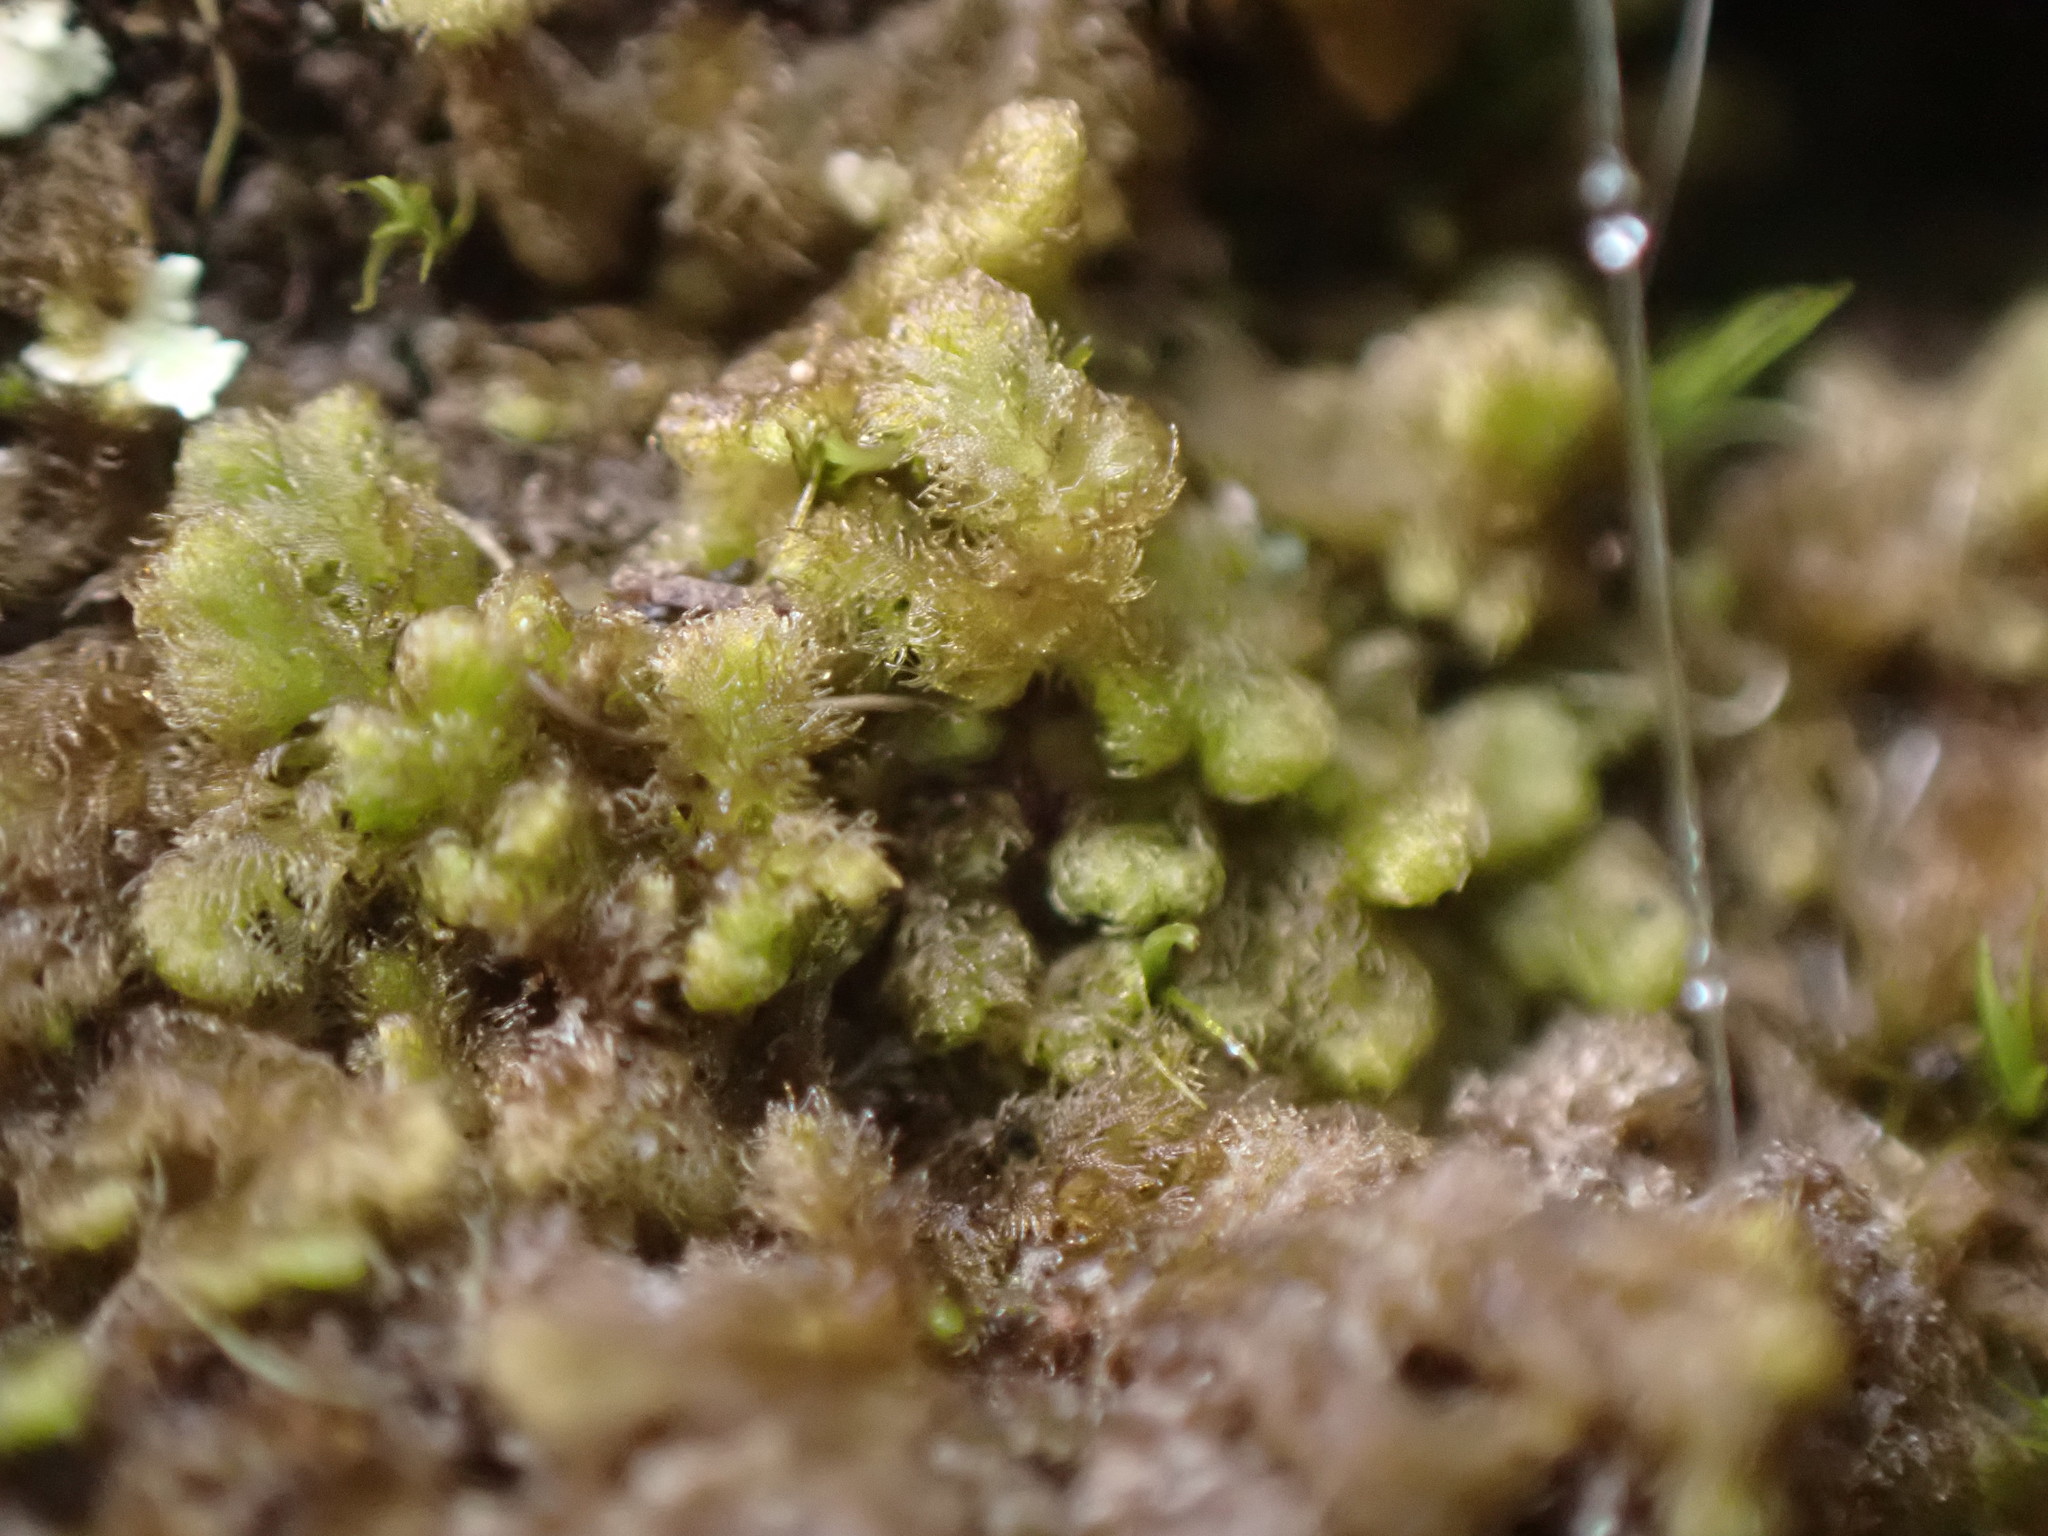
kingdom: Plantae
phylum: Marchantiophyta
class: Jungermanniopsida
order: Ptilidiales
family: Ptilidiaceae
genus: Ptilidium
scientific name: Ptilidium pulcherrimum
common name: Tree fringewort
